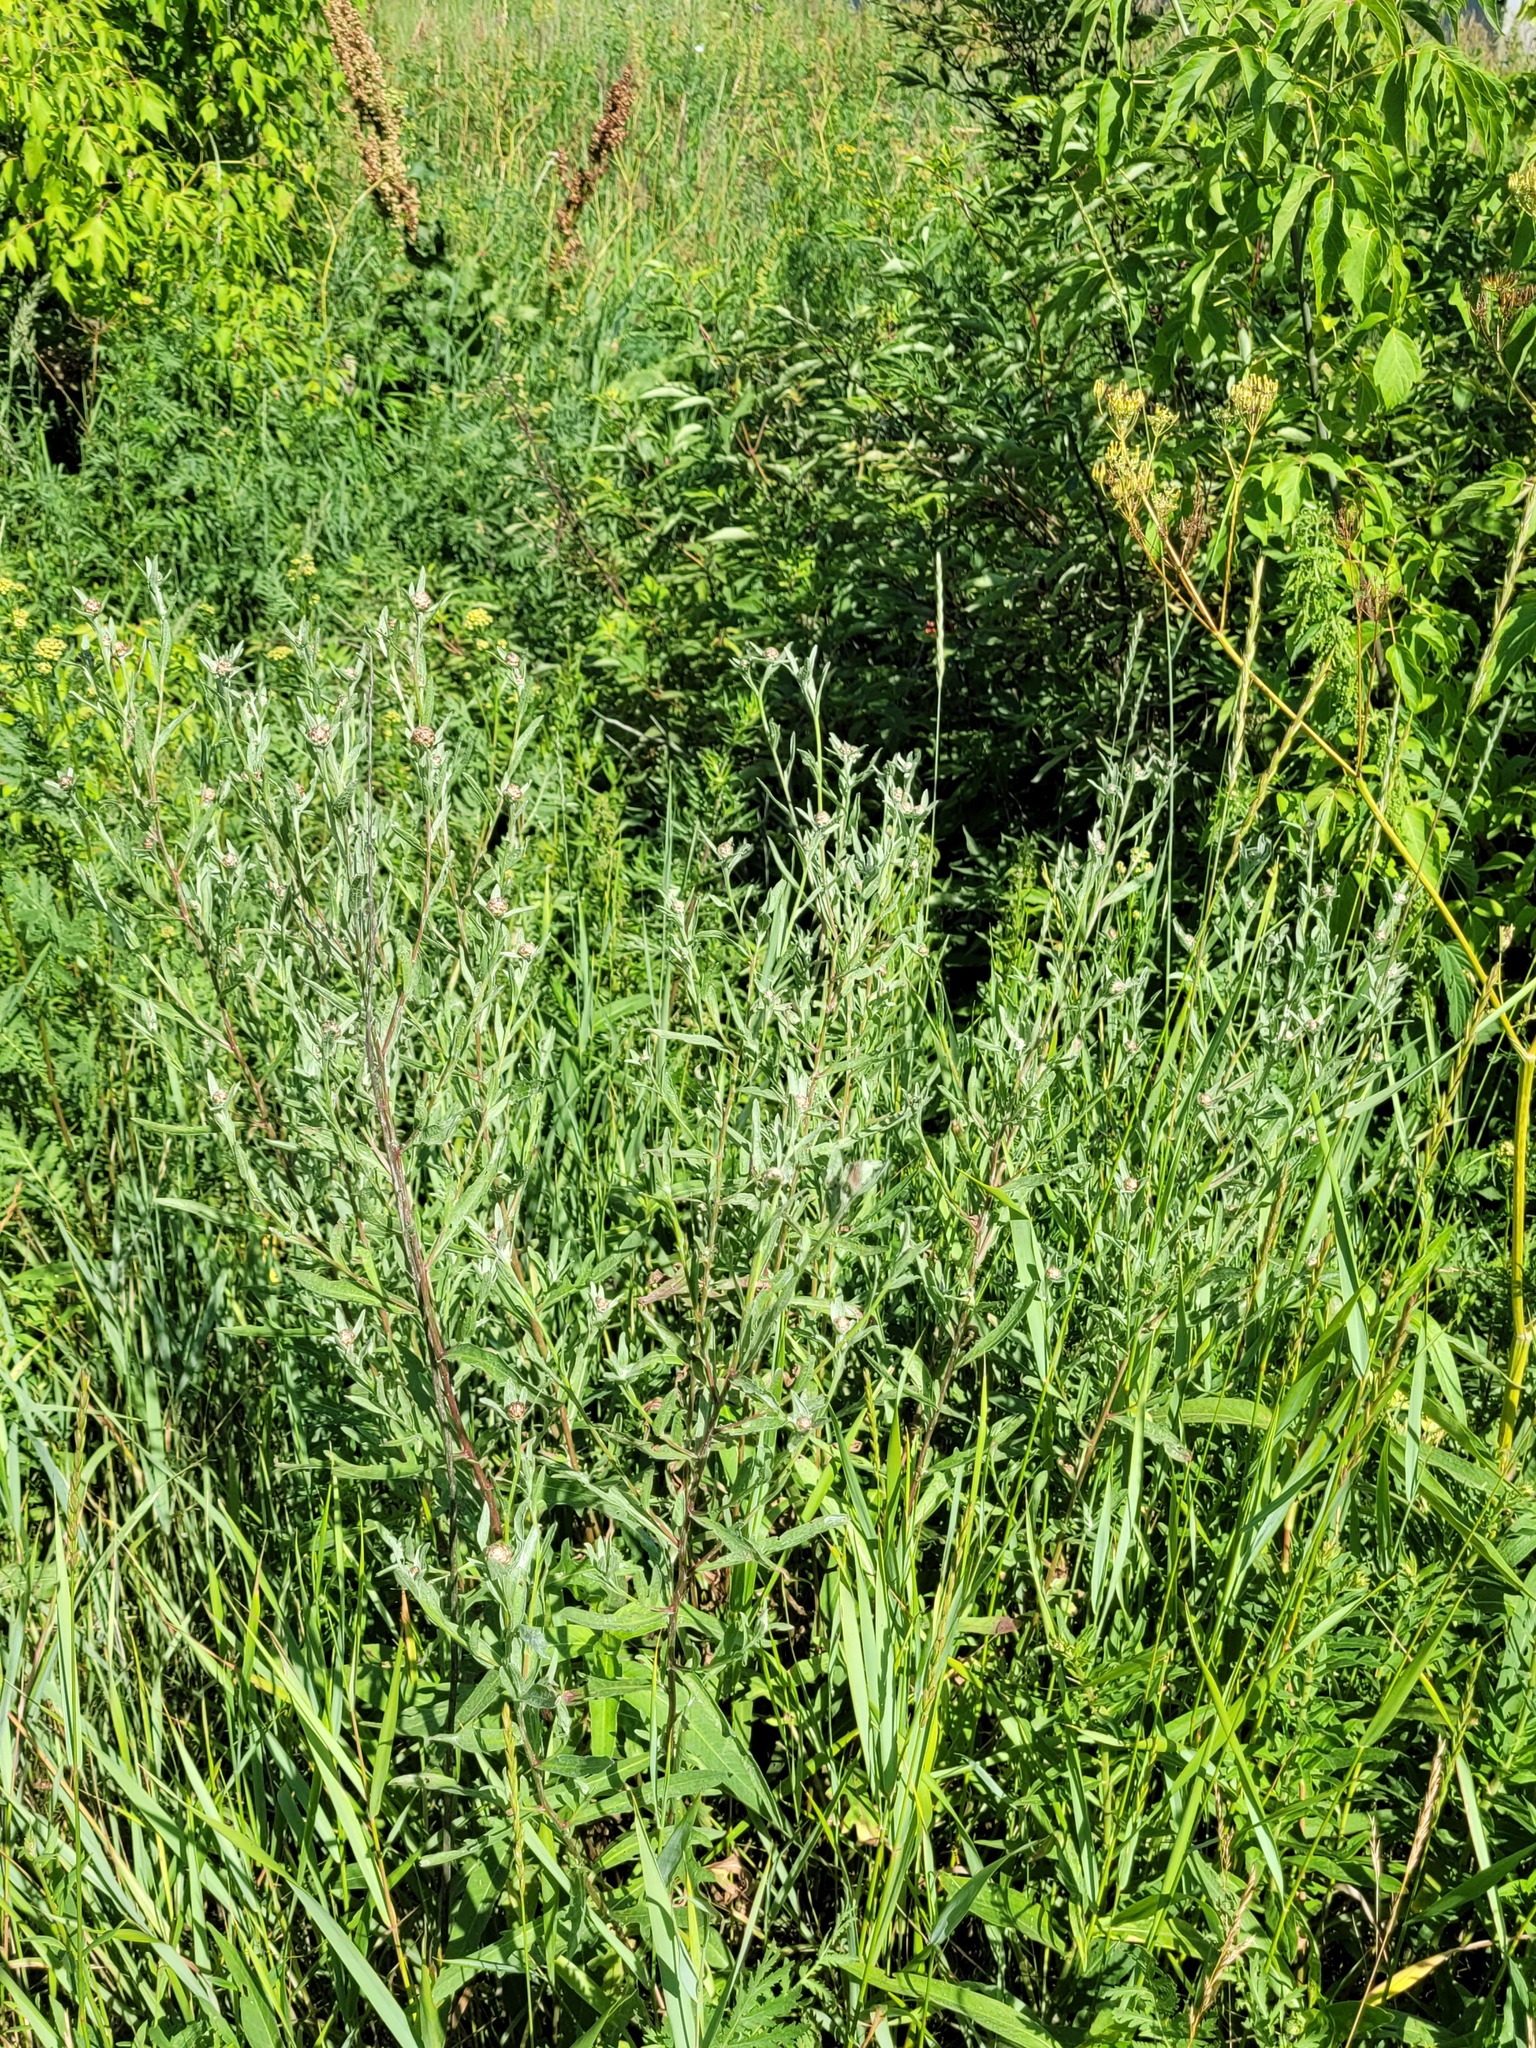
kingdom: Plantae
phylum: Tracheophyta
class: Magnoliopsida
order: Asterales
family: Asteraceae
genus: Centaurea
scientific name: Centaurea jacea
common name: Brown knapweed
